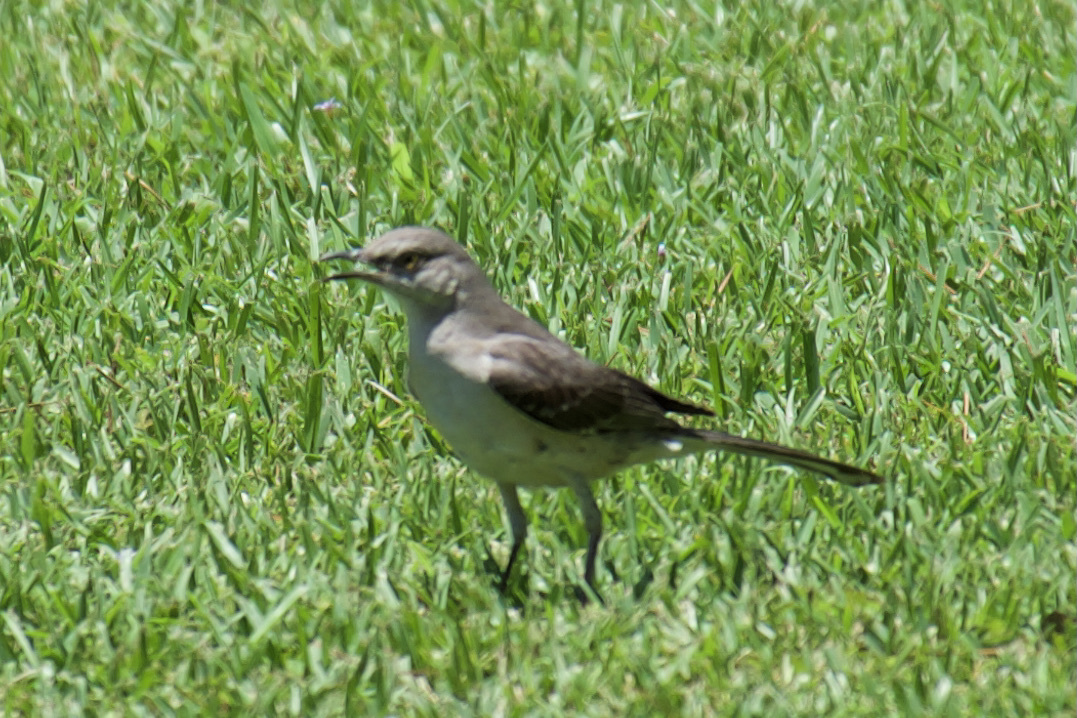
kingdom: Animalia
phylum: Chordata
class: Aves
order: Passeriformes
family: Mimidae
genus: Mimus
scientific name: Mimus polyglottos
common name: Northern mockingbird
